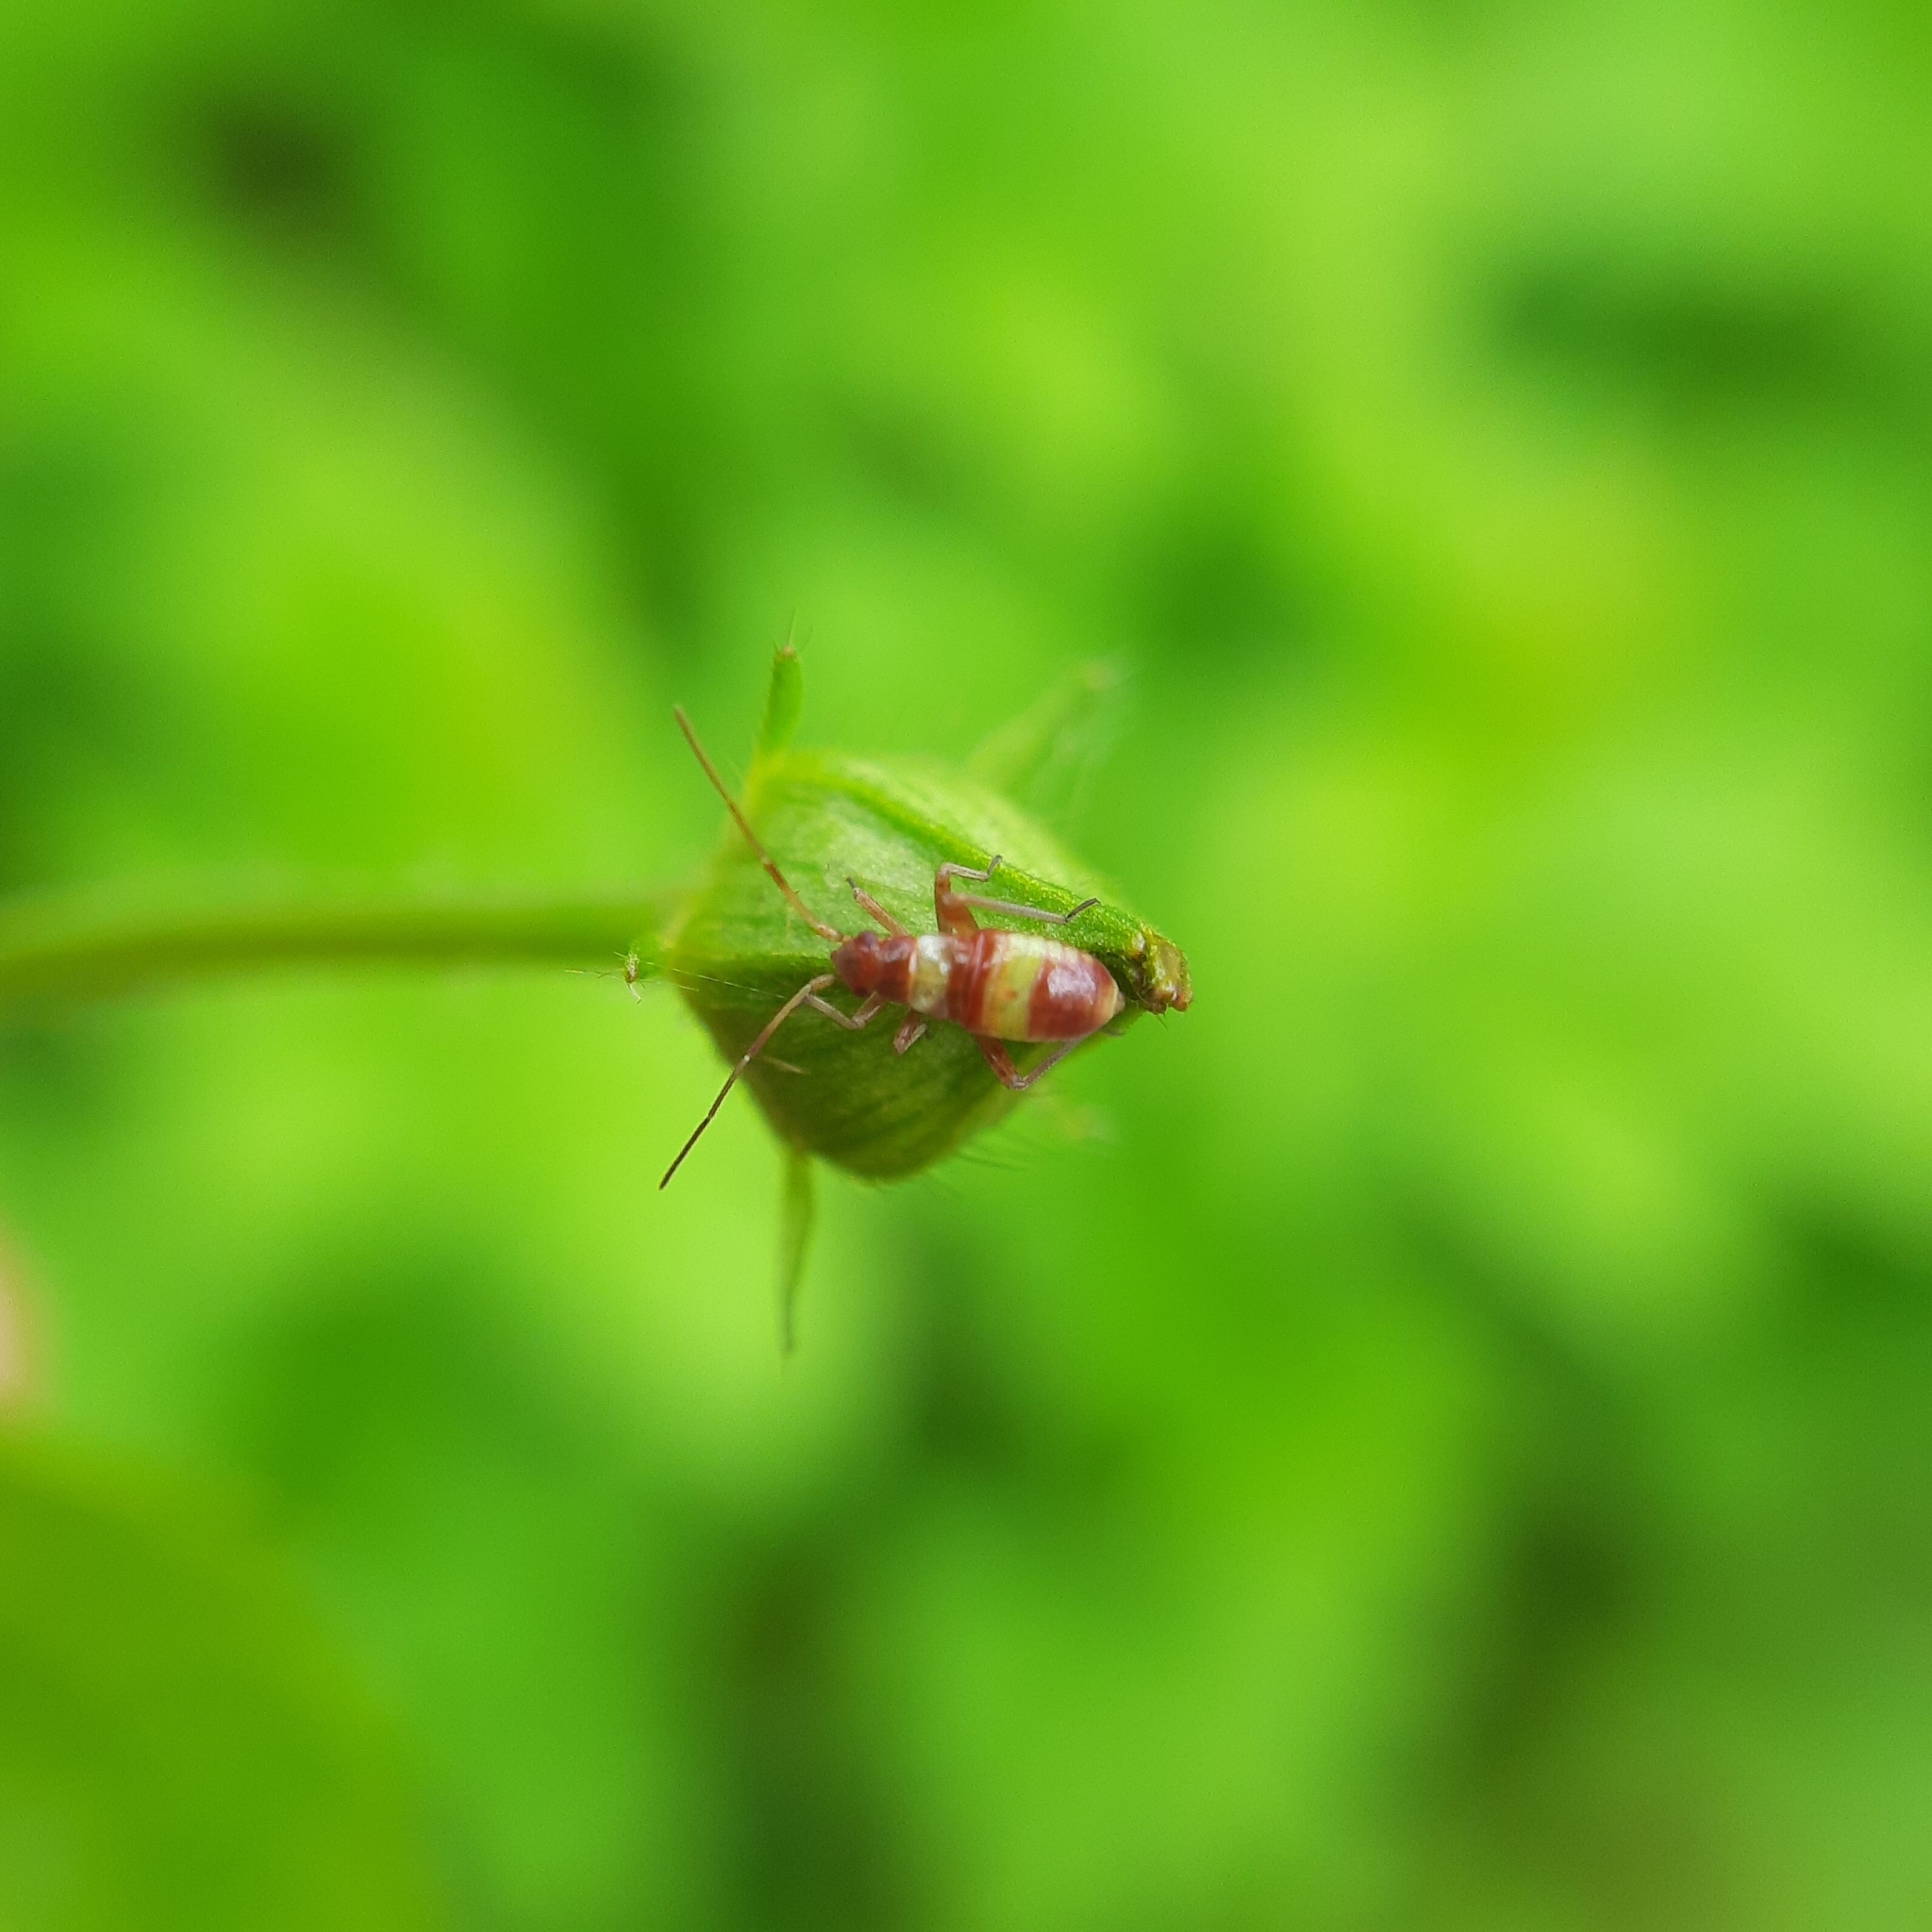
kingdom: Animalia
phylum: Arthropoda
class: Insecta
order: Hemiptera
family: Miridae
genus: Closterotomus
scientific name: Closterotomus fulvomaculatus
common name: Spotted plant bug
